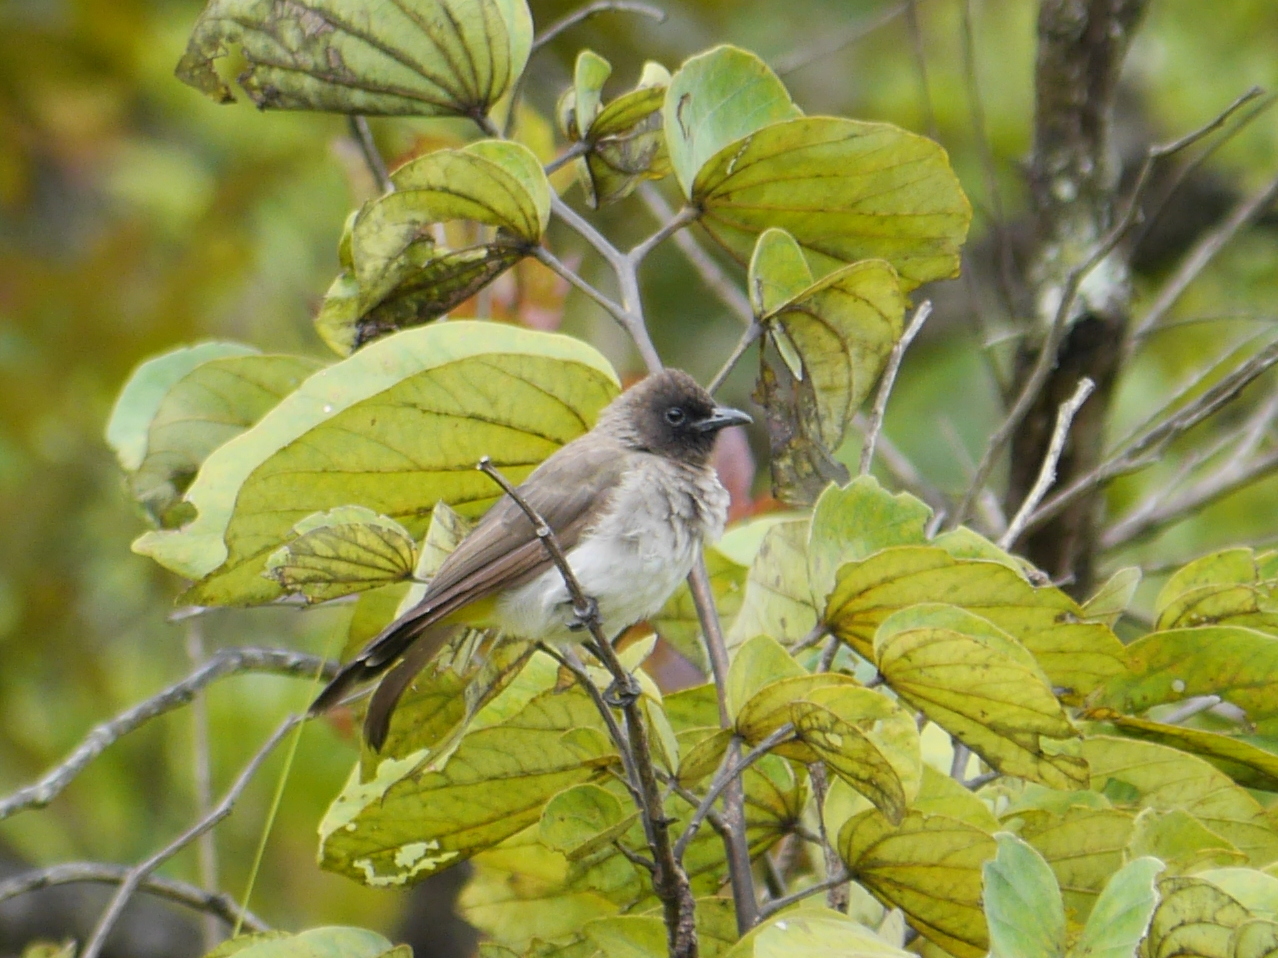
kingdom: Animalia
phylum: Chordata
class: Aves
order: Passeriformes
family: Pycnonotidae
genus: Pycnonotus
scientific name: Pycnonotus barbatus
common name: Common bulbul
